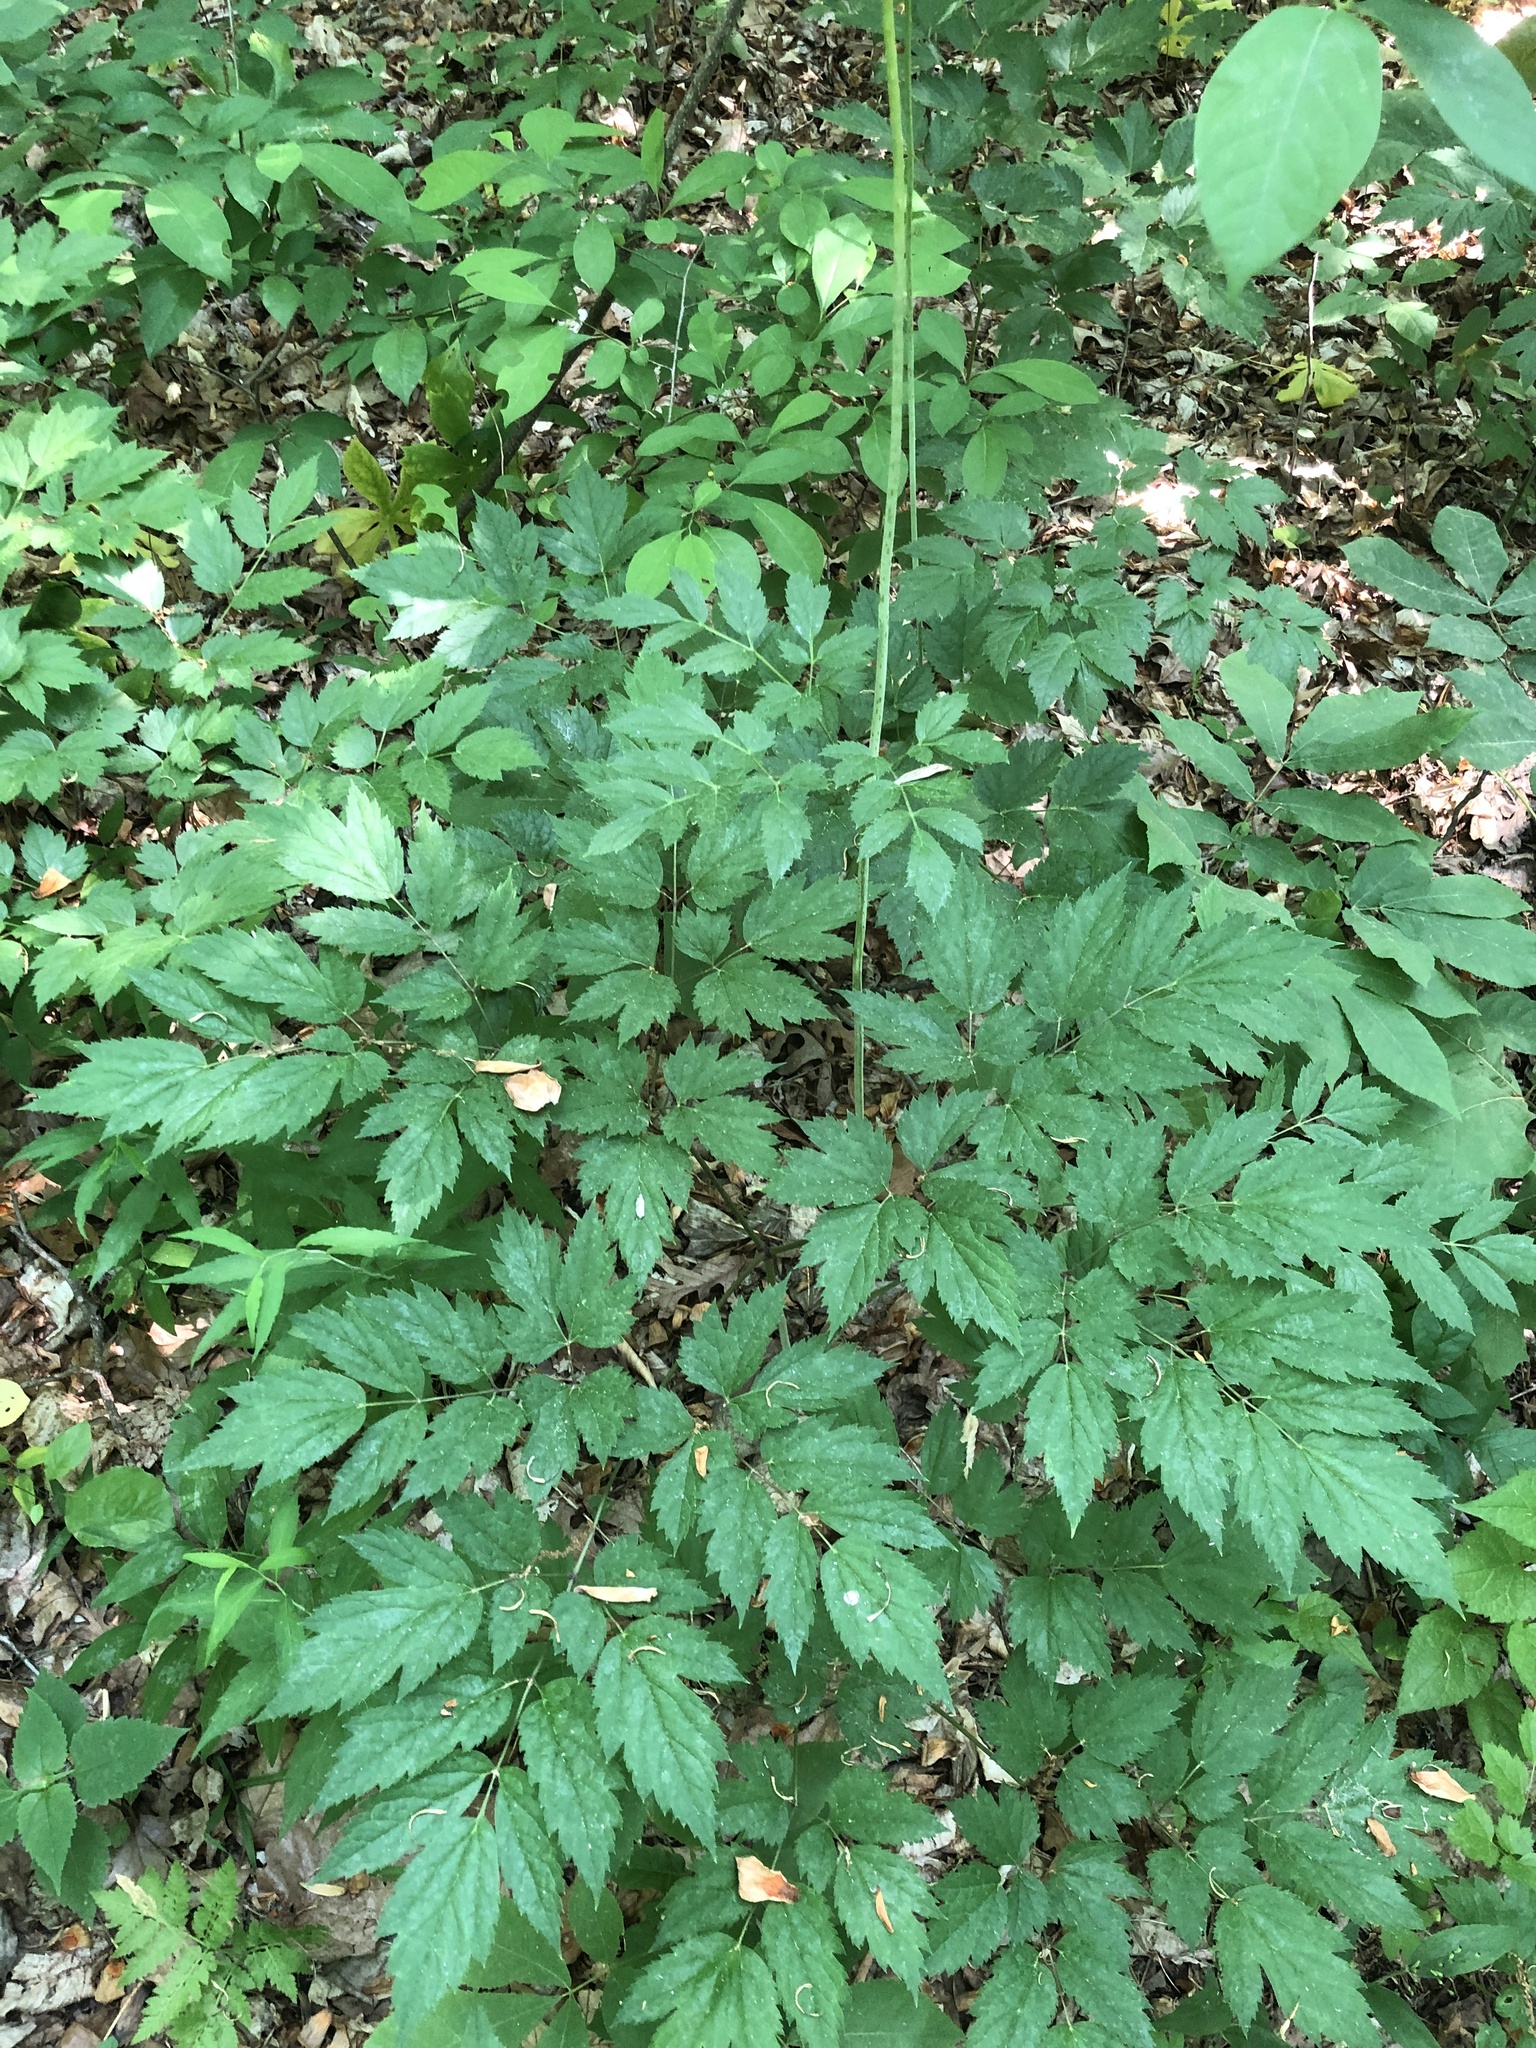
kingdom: Plantae
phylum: Tracheophyta
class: Magnoliopsida
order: Ranunculales
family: Ranunculaceae
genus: Actaea
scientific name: Actaea racemosa
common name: Black cohosh
